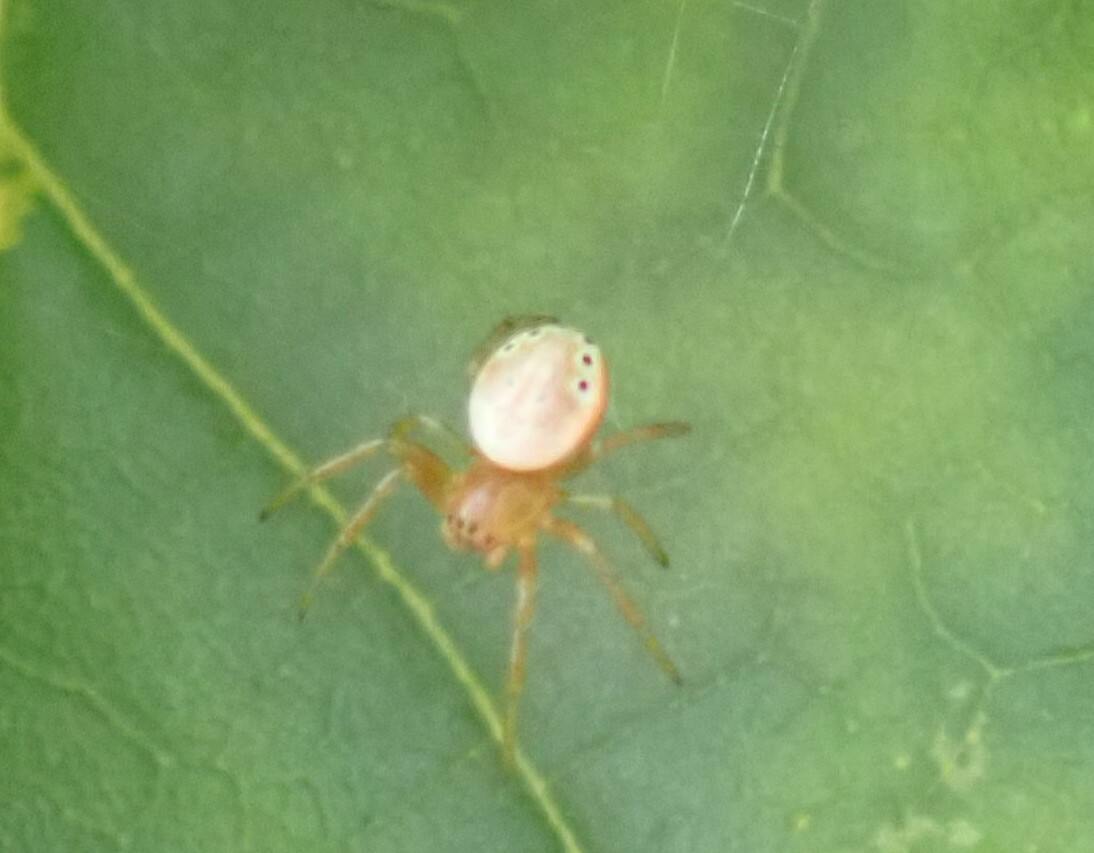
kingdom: Animalia
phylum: Arthropoda
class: Arachnida
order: Araneae
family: Araneidae
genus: Araniella
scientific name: Araniella displicata
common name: Sixspotted orb weaver
